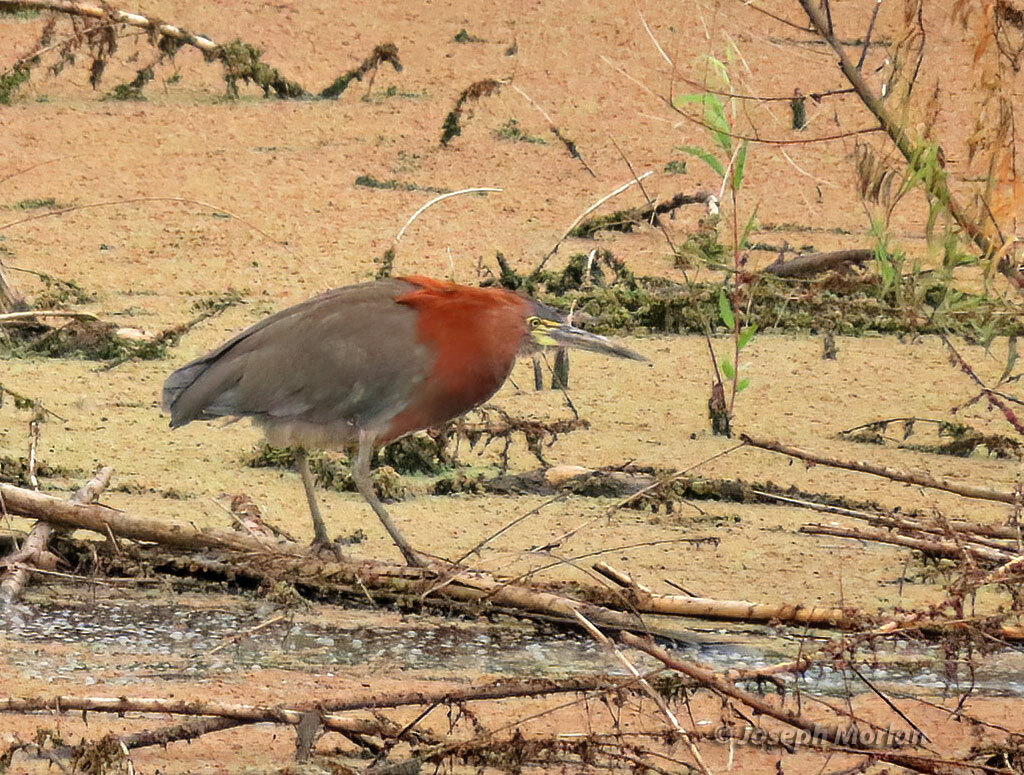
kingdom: Animalia
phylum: Chordata
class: Aves
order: Pelecaniformes
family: Ardeidae
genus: Tigrisoma
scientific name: Tigrisoma lineatum
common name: Rufescent tiger-heron
